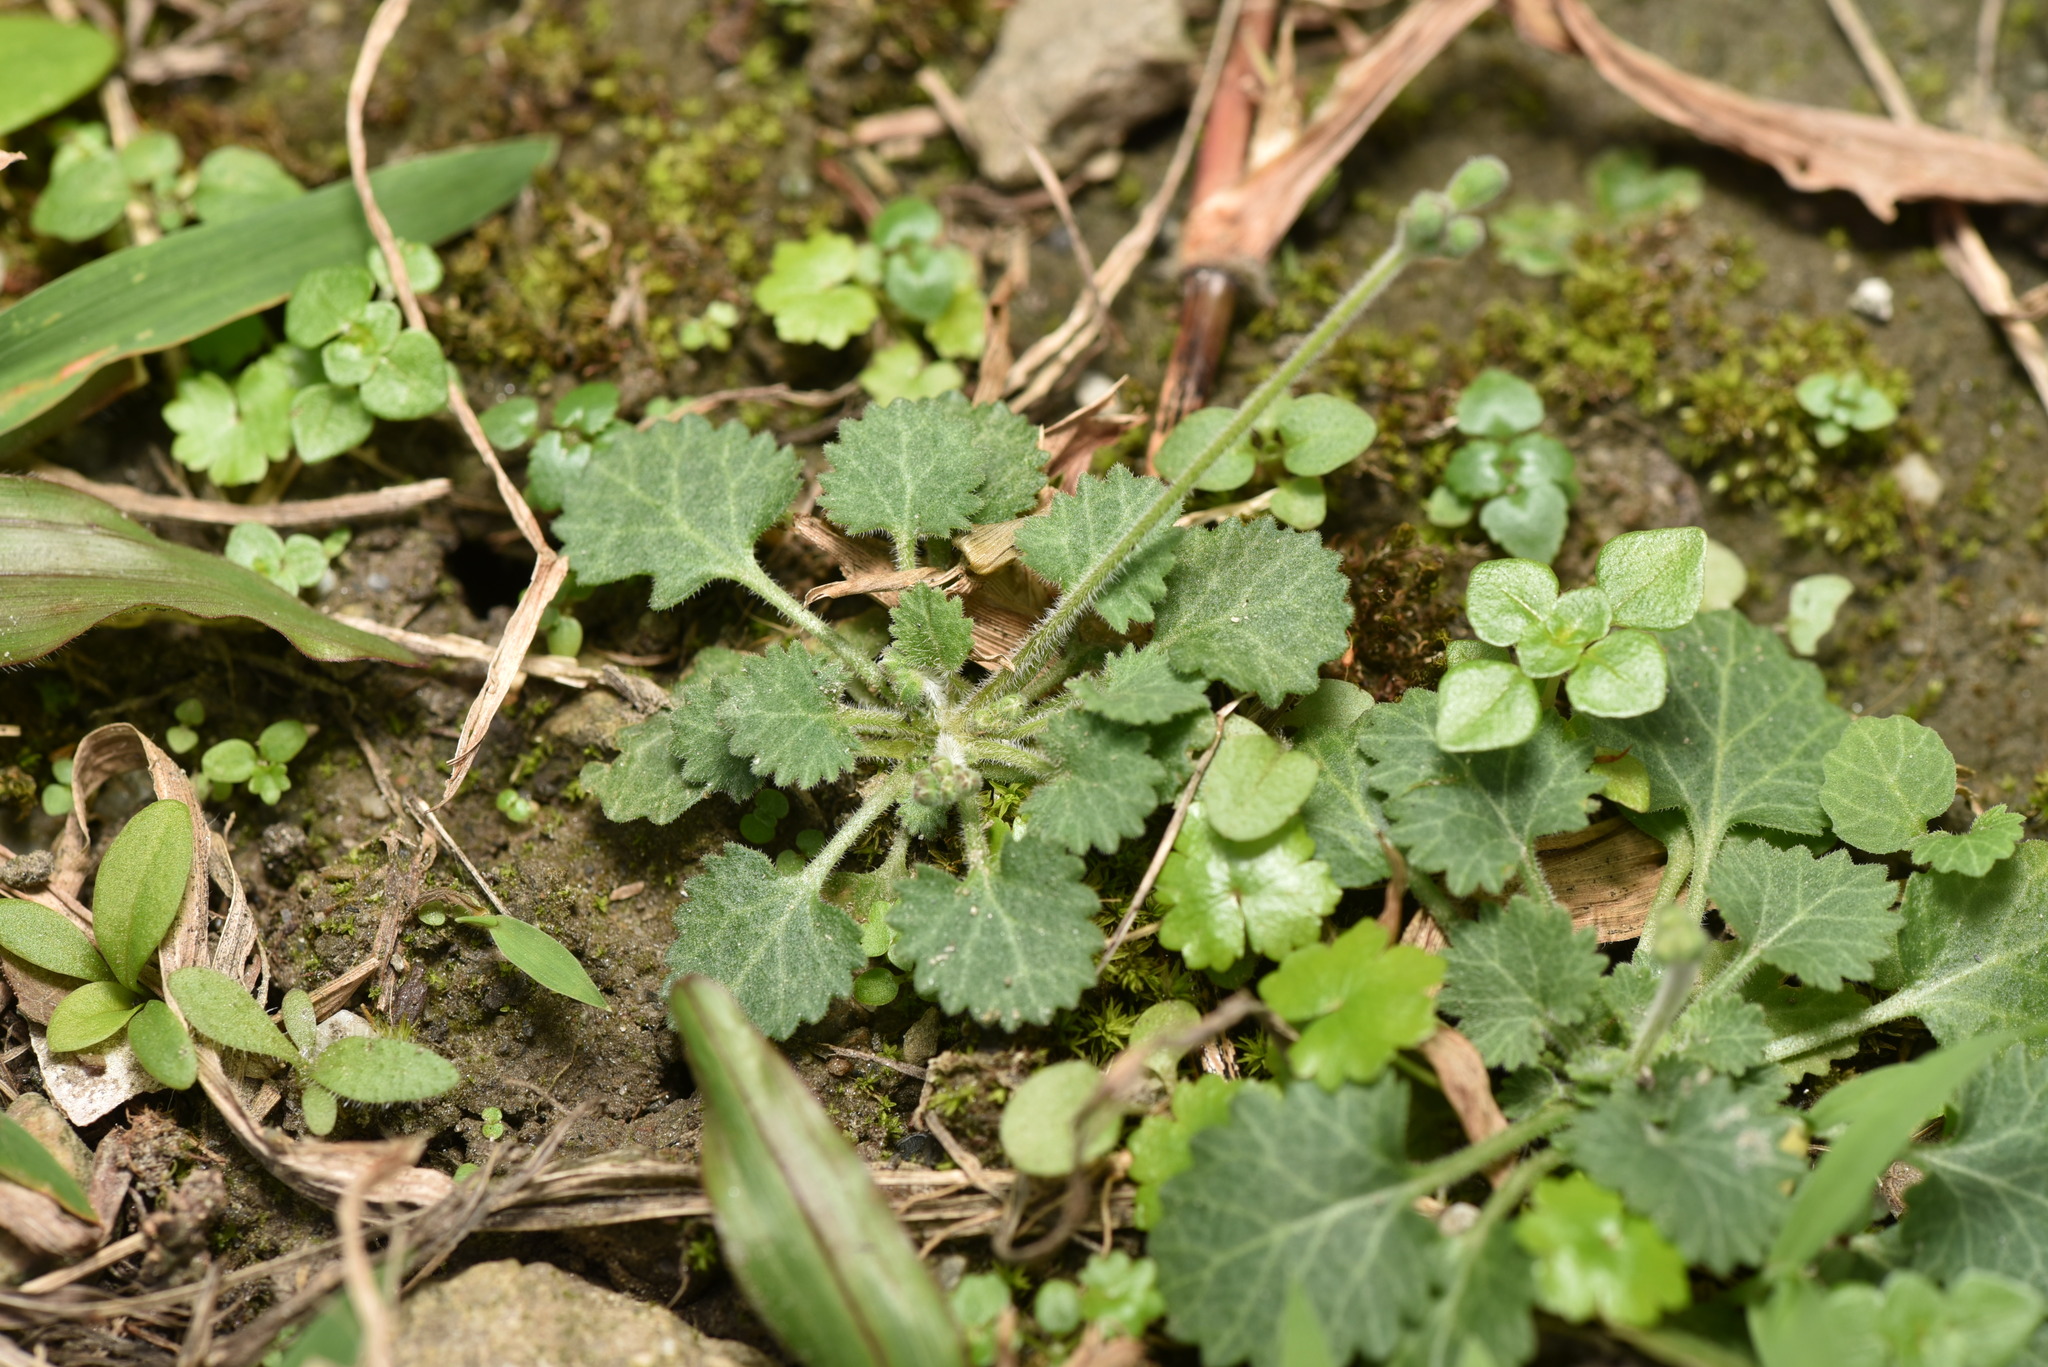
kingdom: Plantae
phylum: Tracheophyta
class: Magnoliopsida
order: Ericales
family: Primulaceae
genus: Androsace
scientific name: Androsace umbellata
